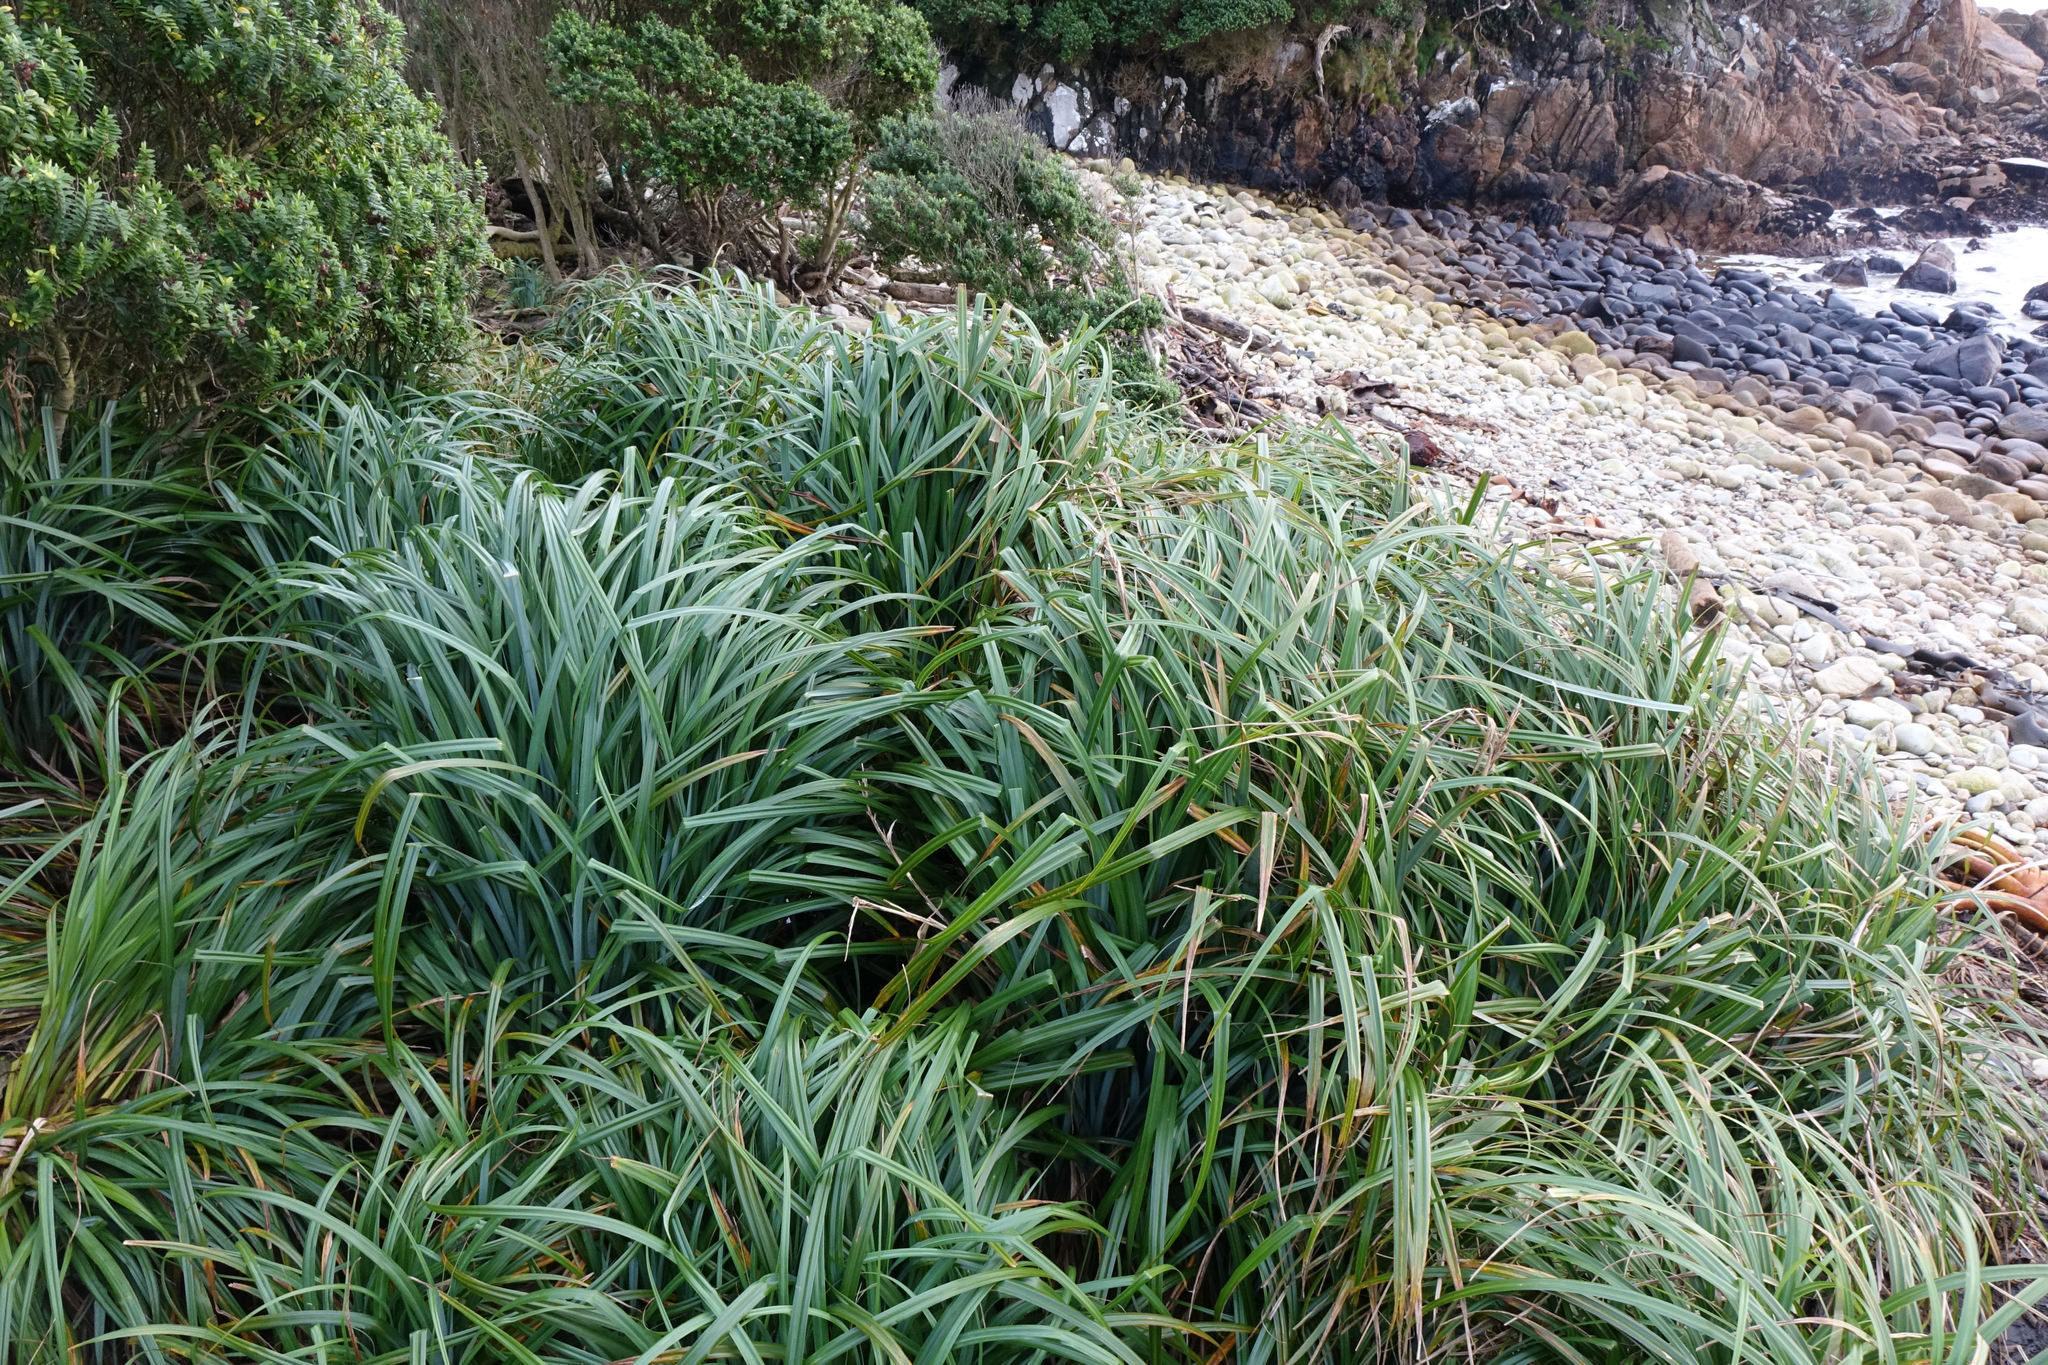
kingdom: Plantae
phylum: Tracheophyta
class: Liliopsida
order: Poales
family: Cyperaceae
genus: Carex
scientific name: Carex trifida
